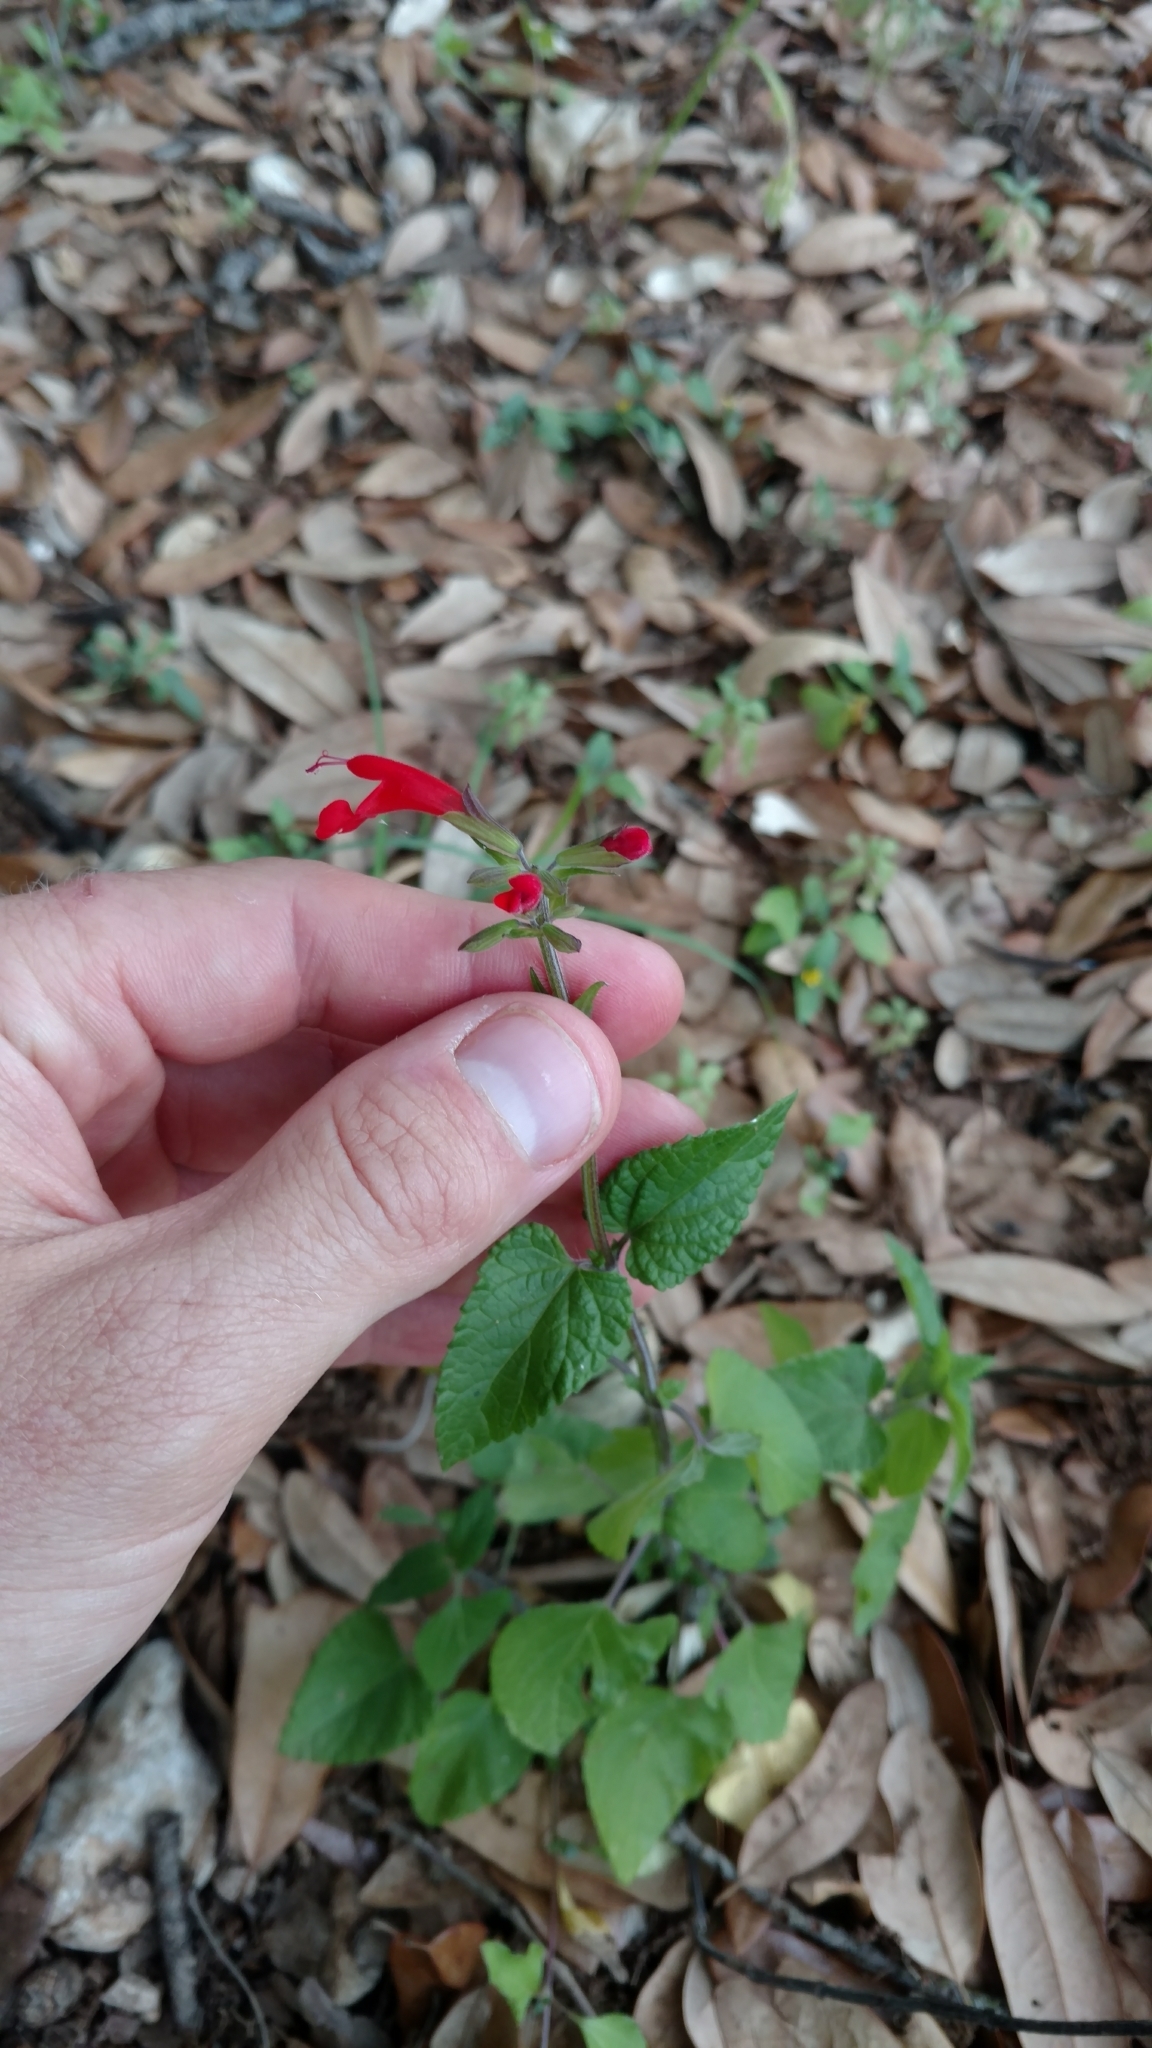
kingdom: Plantae
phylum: Tracheophyta
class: Magnoliopsida
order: Lamiales
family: Lamiaceae
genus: Salvia
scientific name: Salvia coccinea
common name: Blood sage
